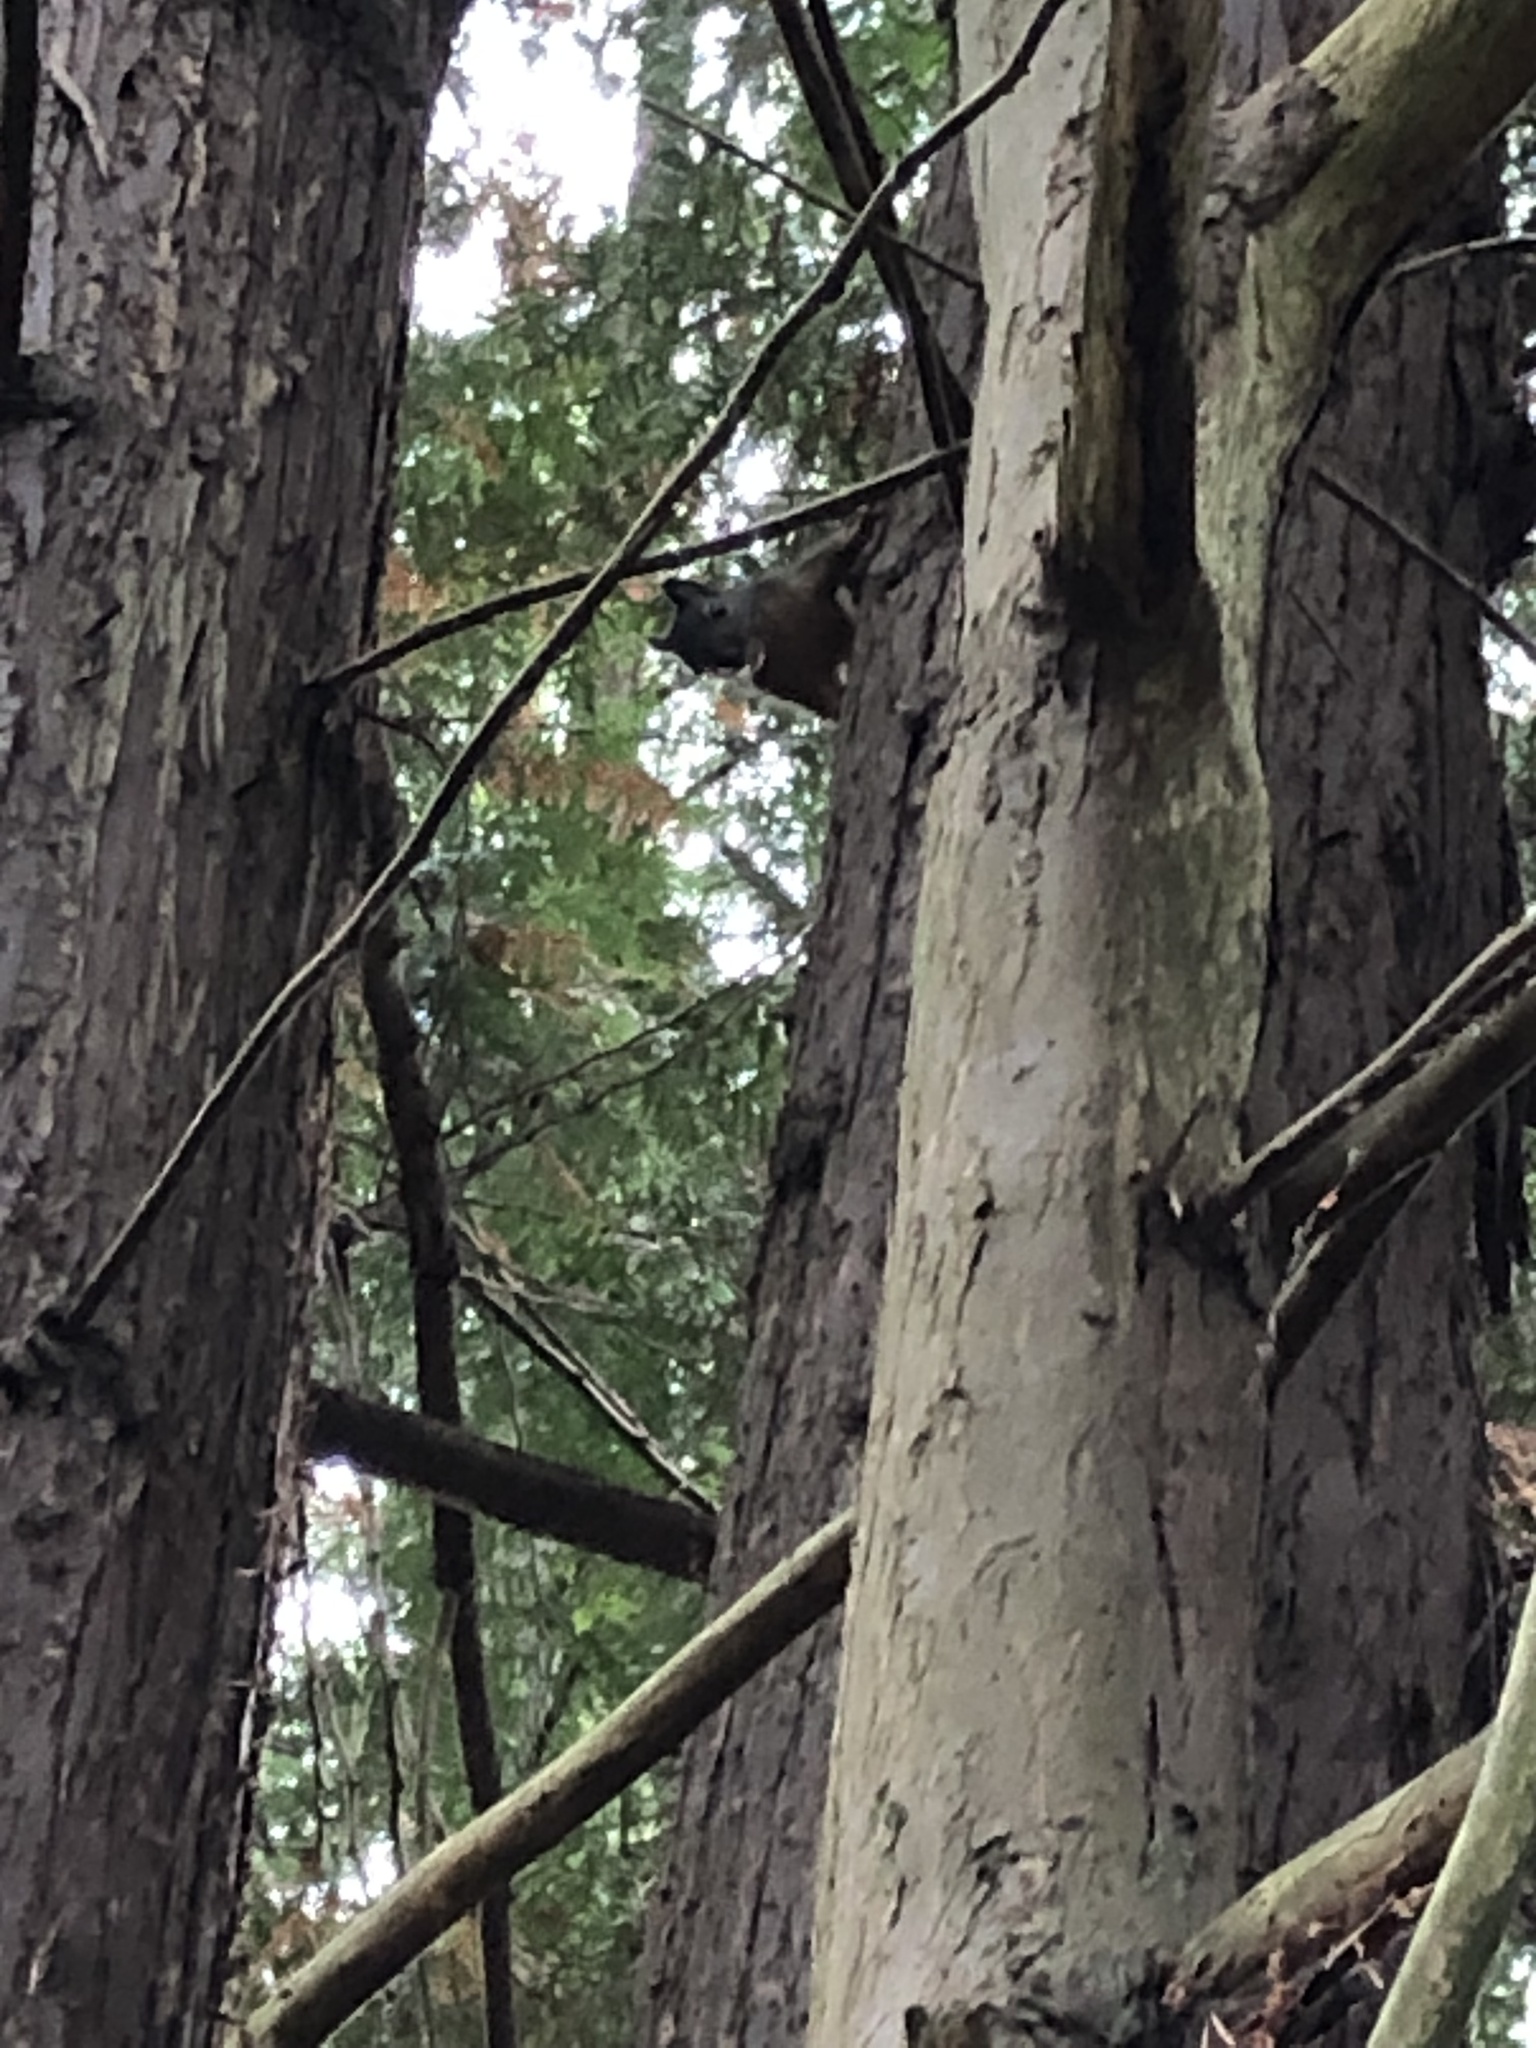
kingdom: Animalia
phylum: Chordata
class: Mammalia
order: Rodentia
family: Sciuridae
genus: Tamiasciurus
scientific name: Tamiasciurus douglasii
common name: Douglas's squirrel
